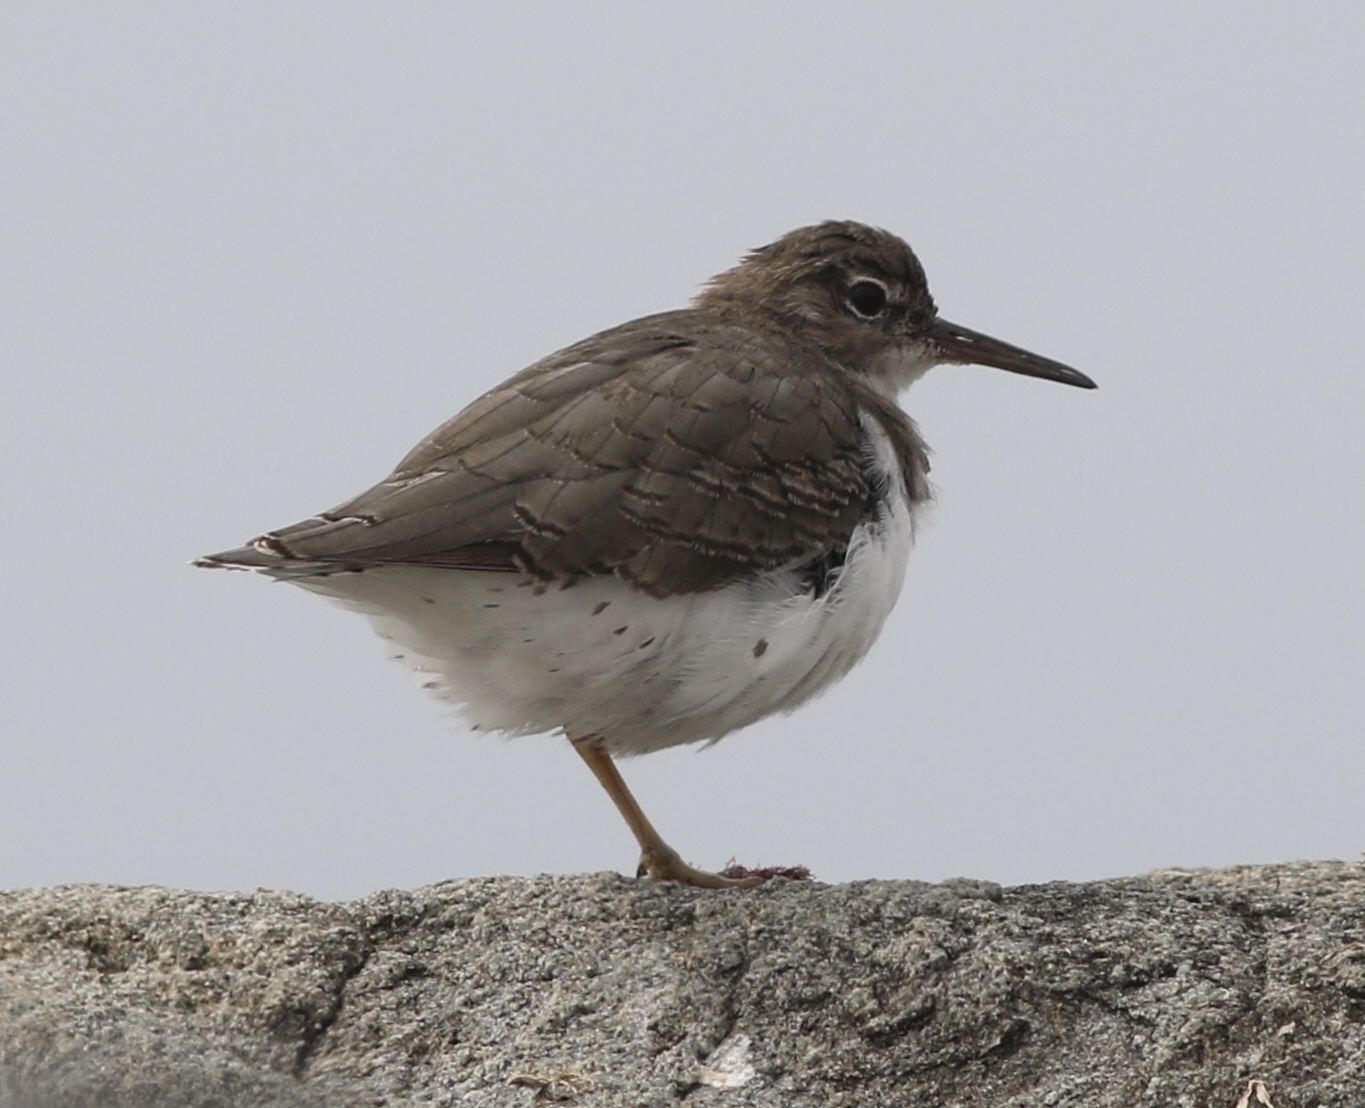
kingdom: Animalia
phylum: Chordata
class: Aves
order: Charadriiformes
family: Scolopacidae
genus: Actitis
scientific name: Actitis macularius
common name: Spotted sandpiper
